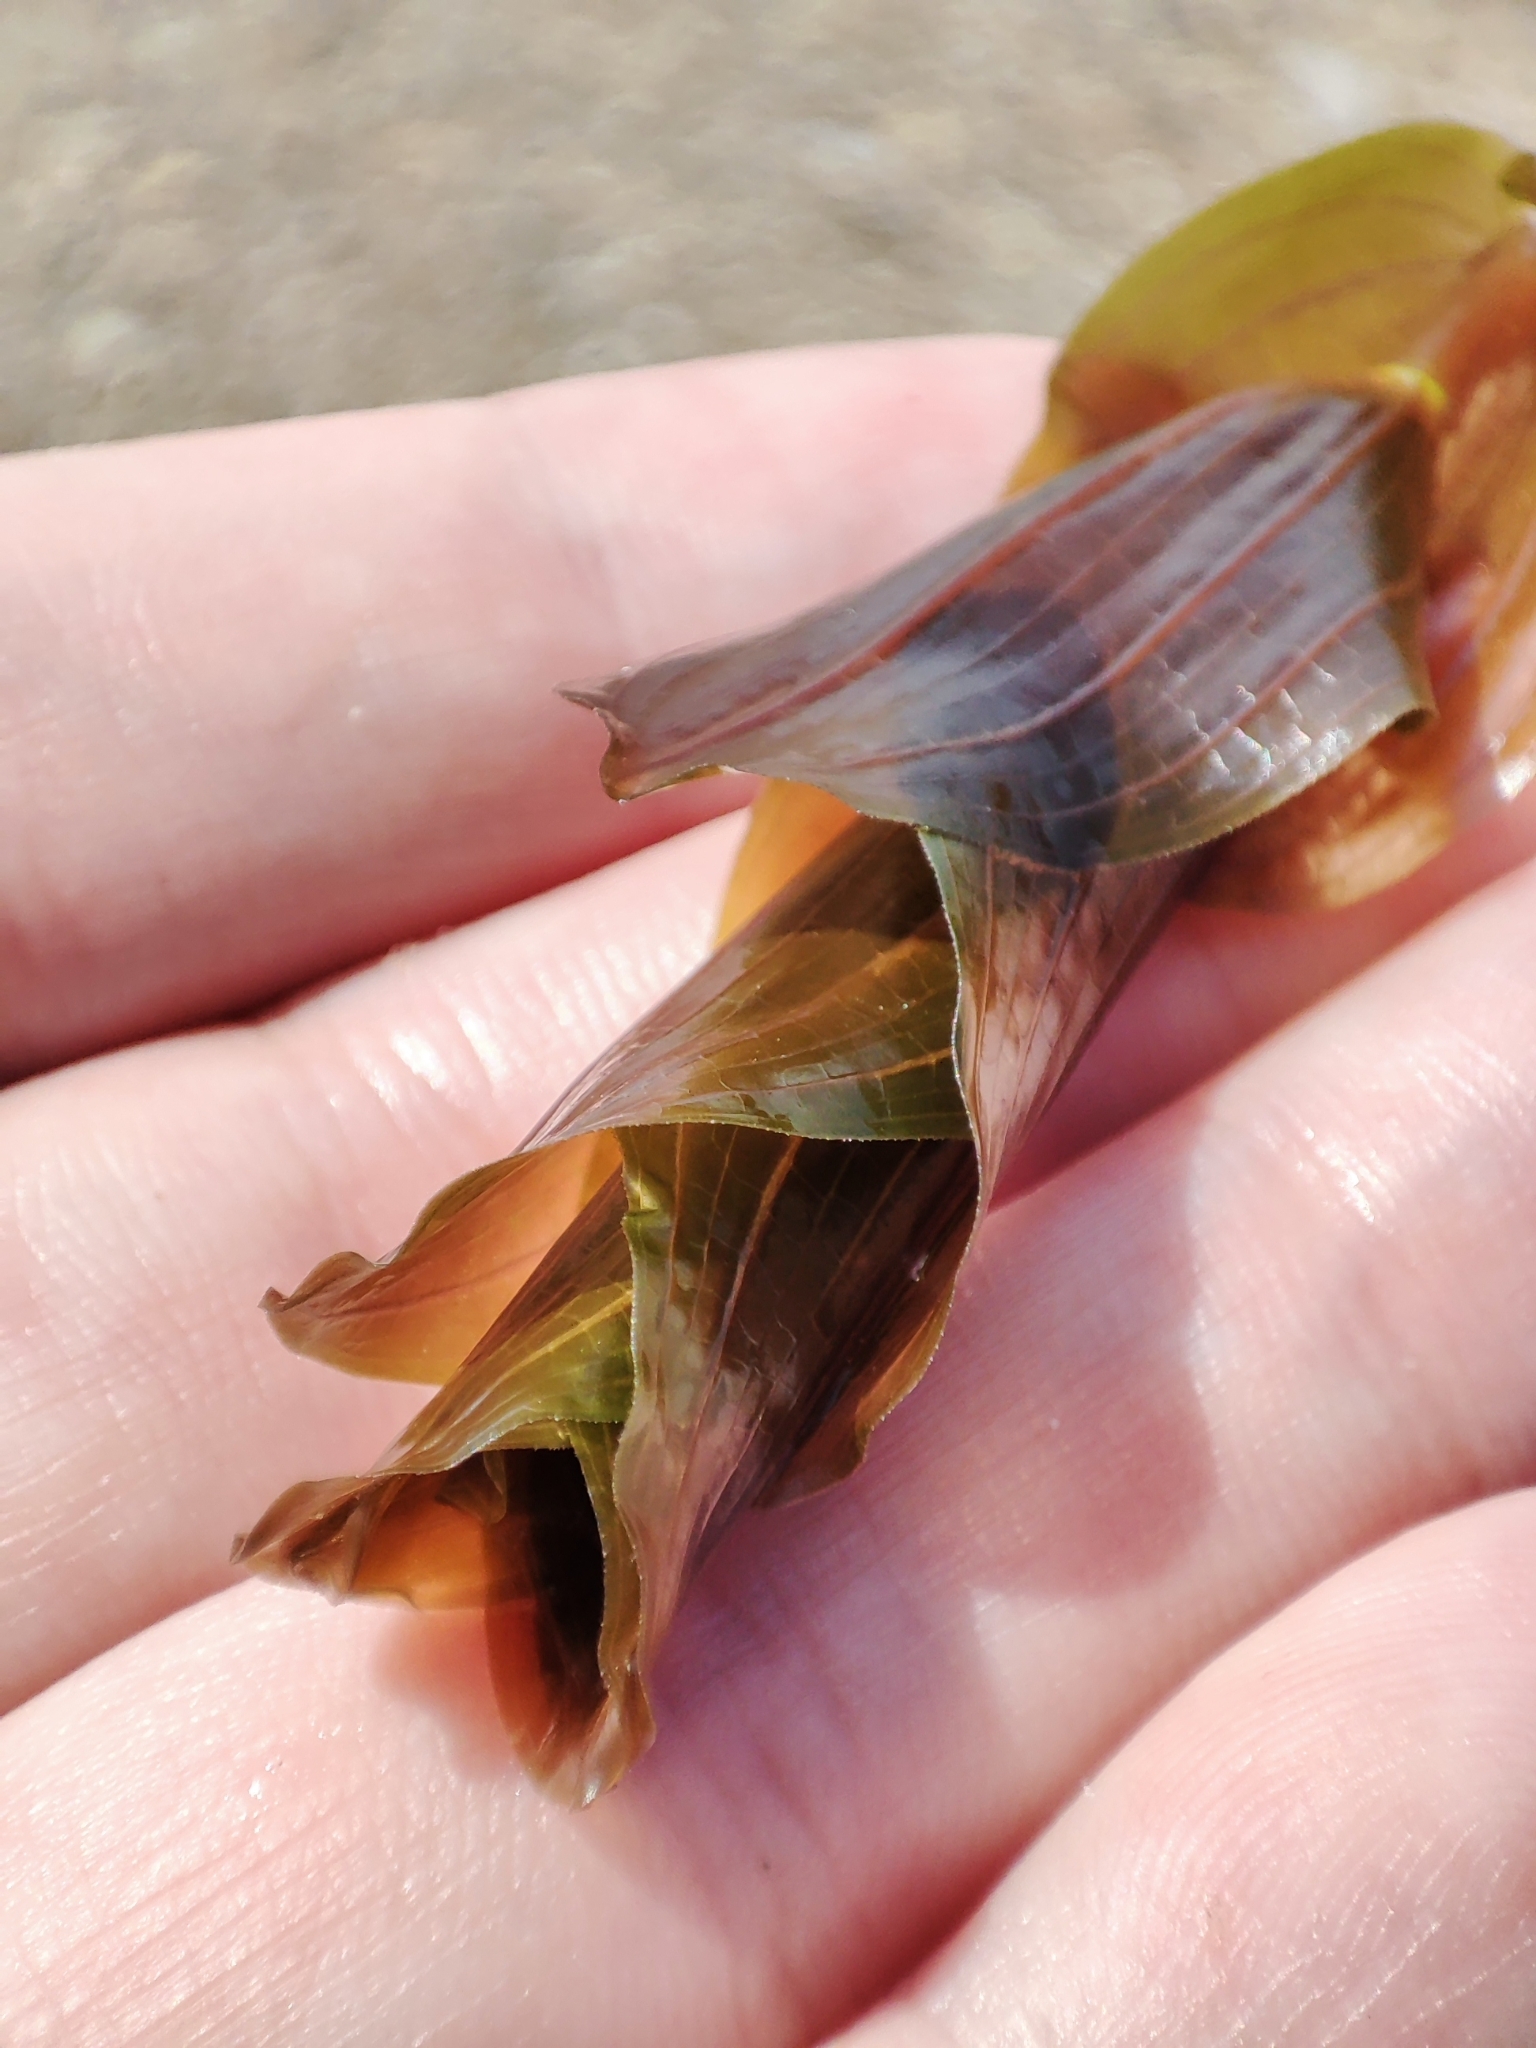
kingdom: Plantae
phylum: Tracheophyta
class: Liliopsida
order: Alismatales
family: Potamogetonaceae
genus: Potamogeton
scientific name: Potamogeton perfoliatus
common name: Perfoliate pondweed
